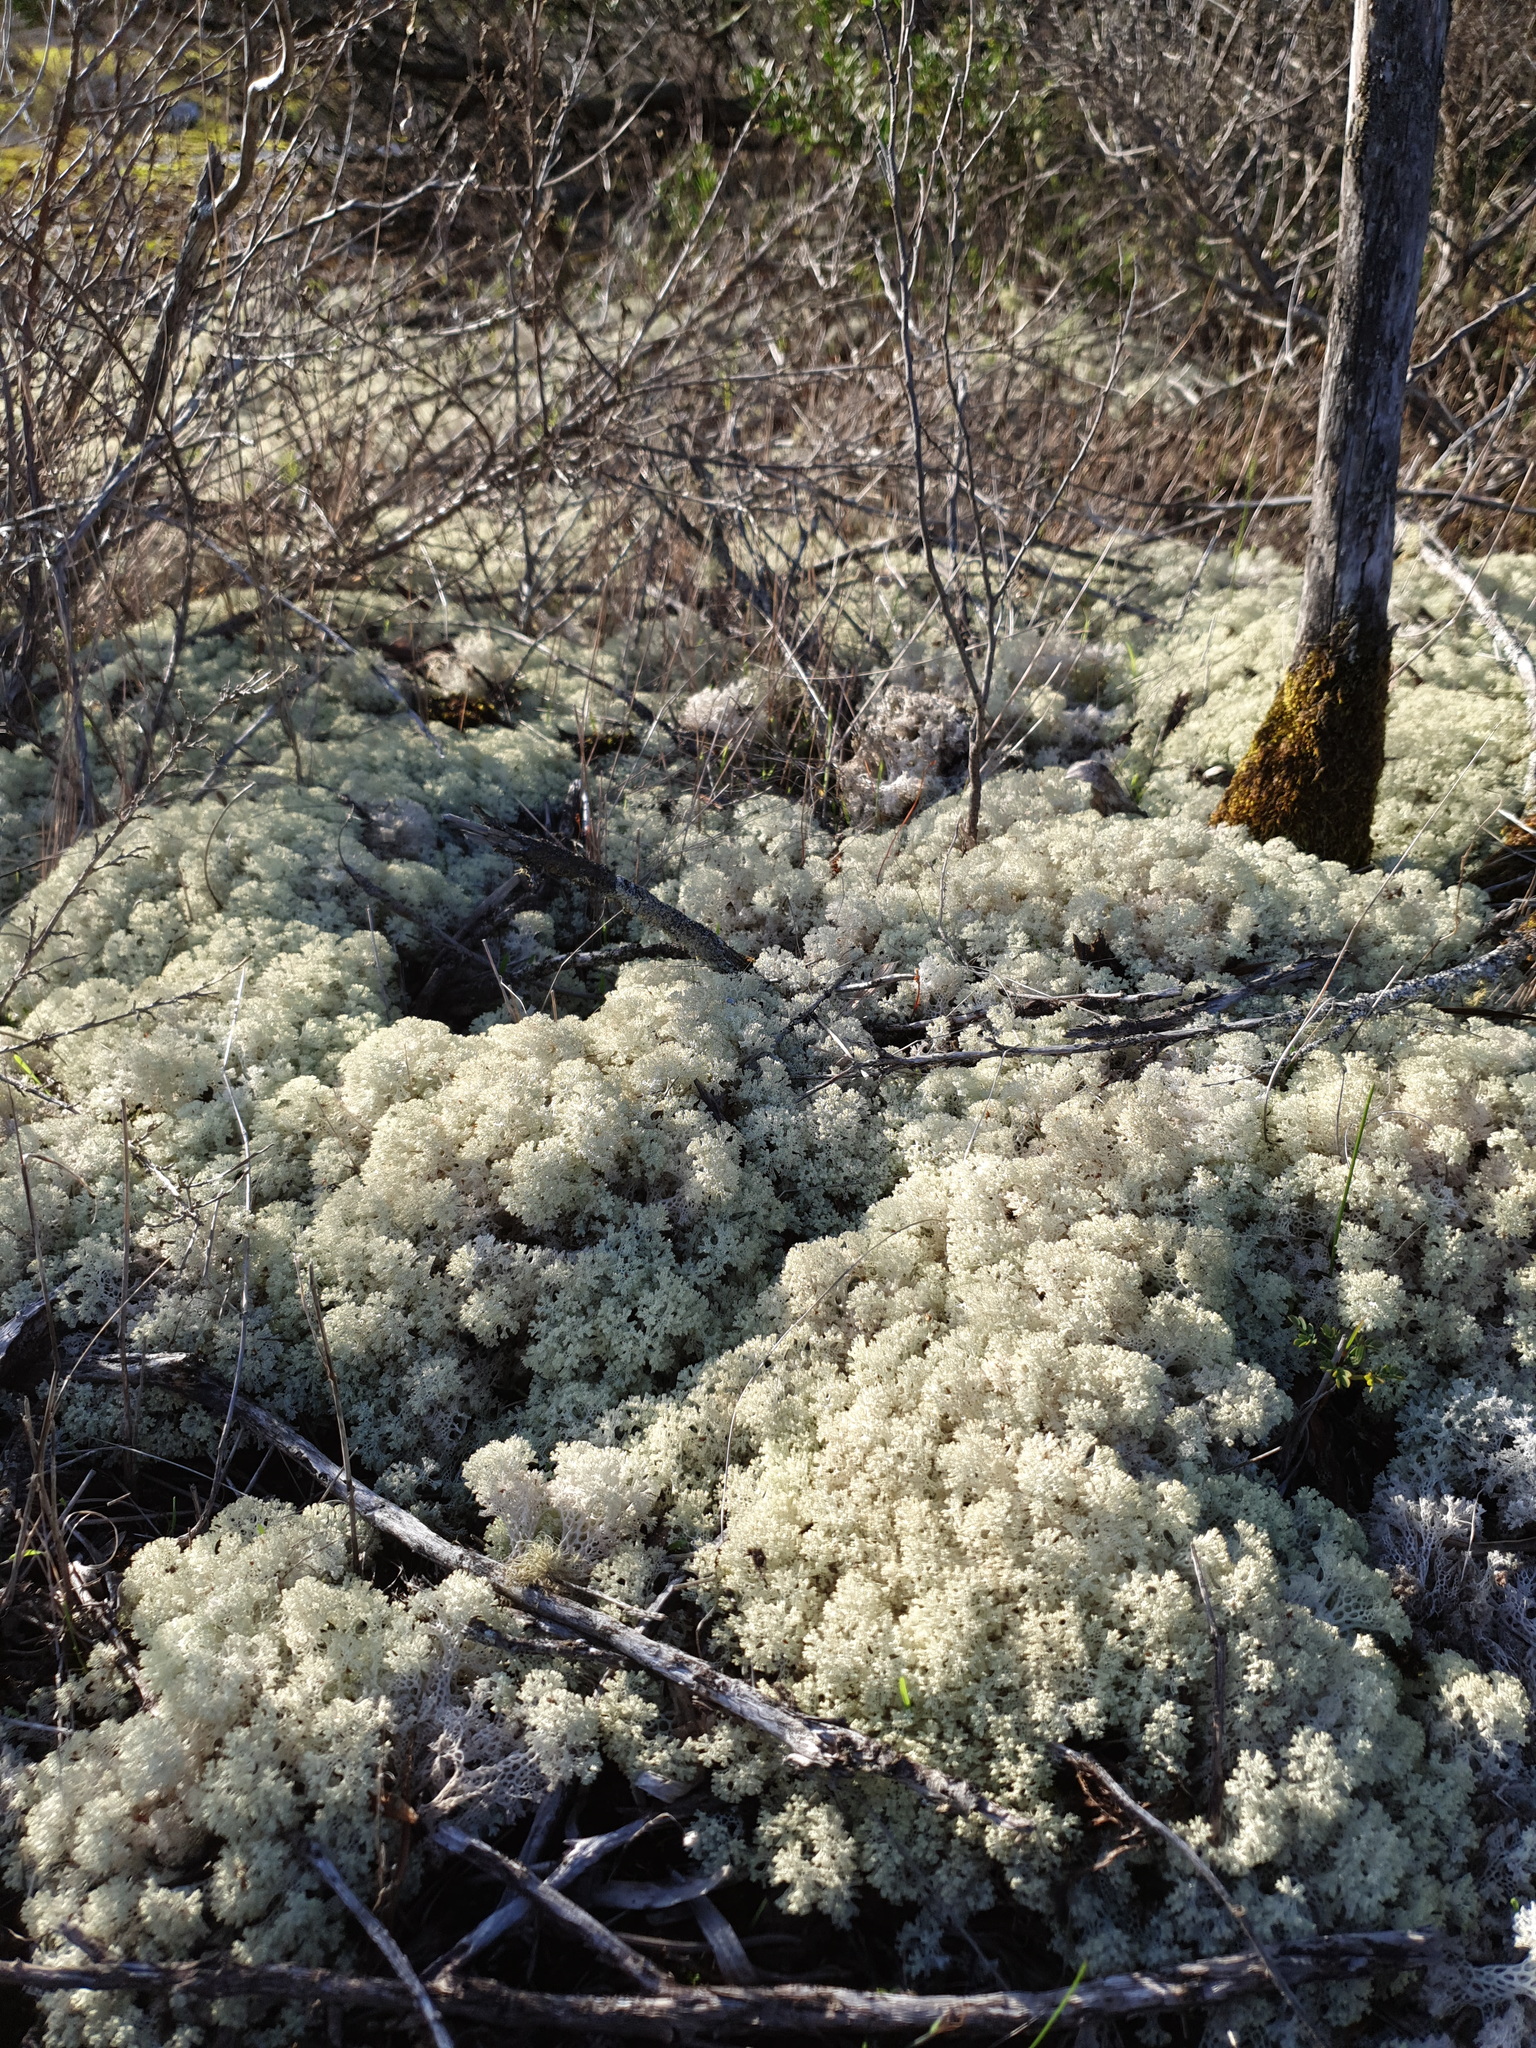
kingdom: Fungi
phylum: Ascomycota
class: Lecanoromycetes
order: Lecanorales
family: Cladoniaceae
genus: Pulchrocladia
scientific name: Pulchrocladia ferdinandii
